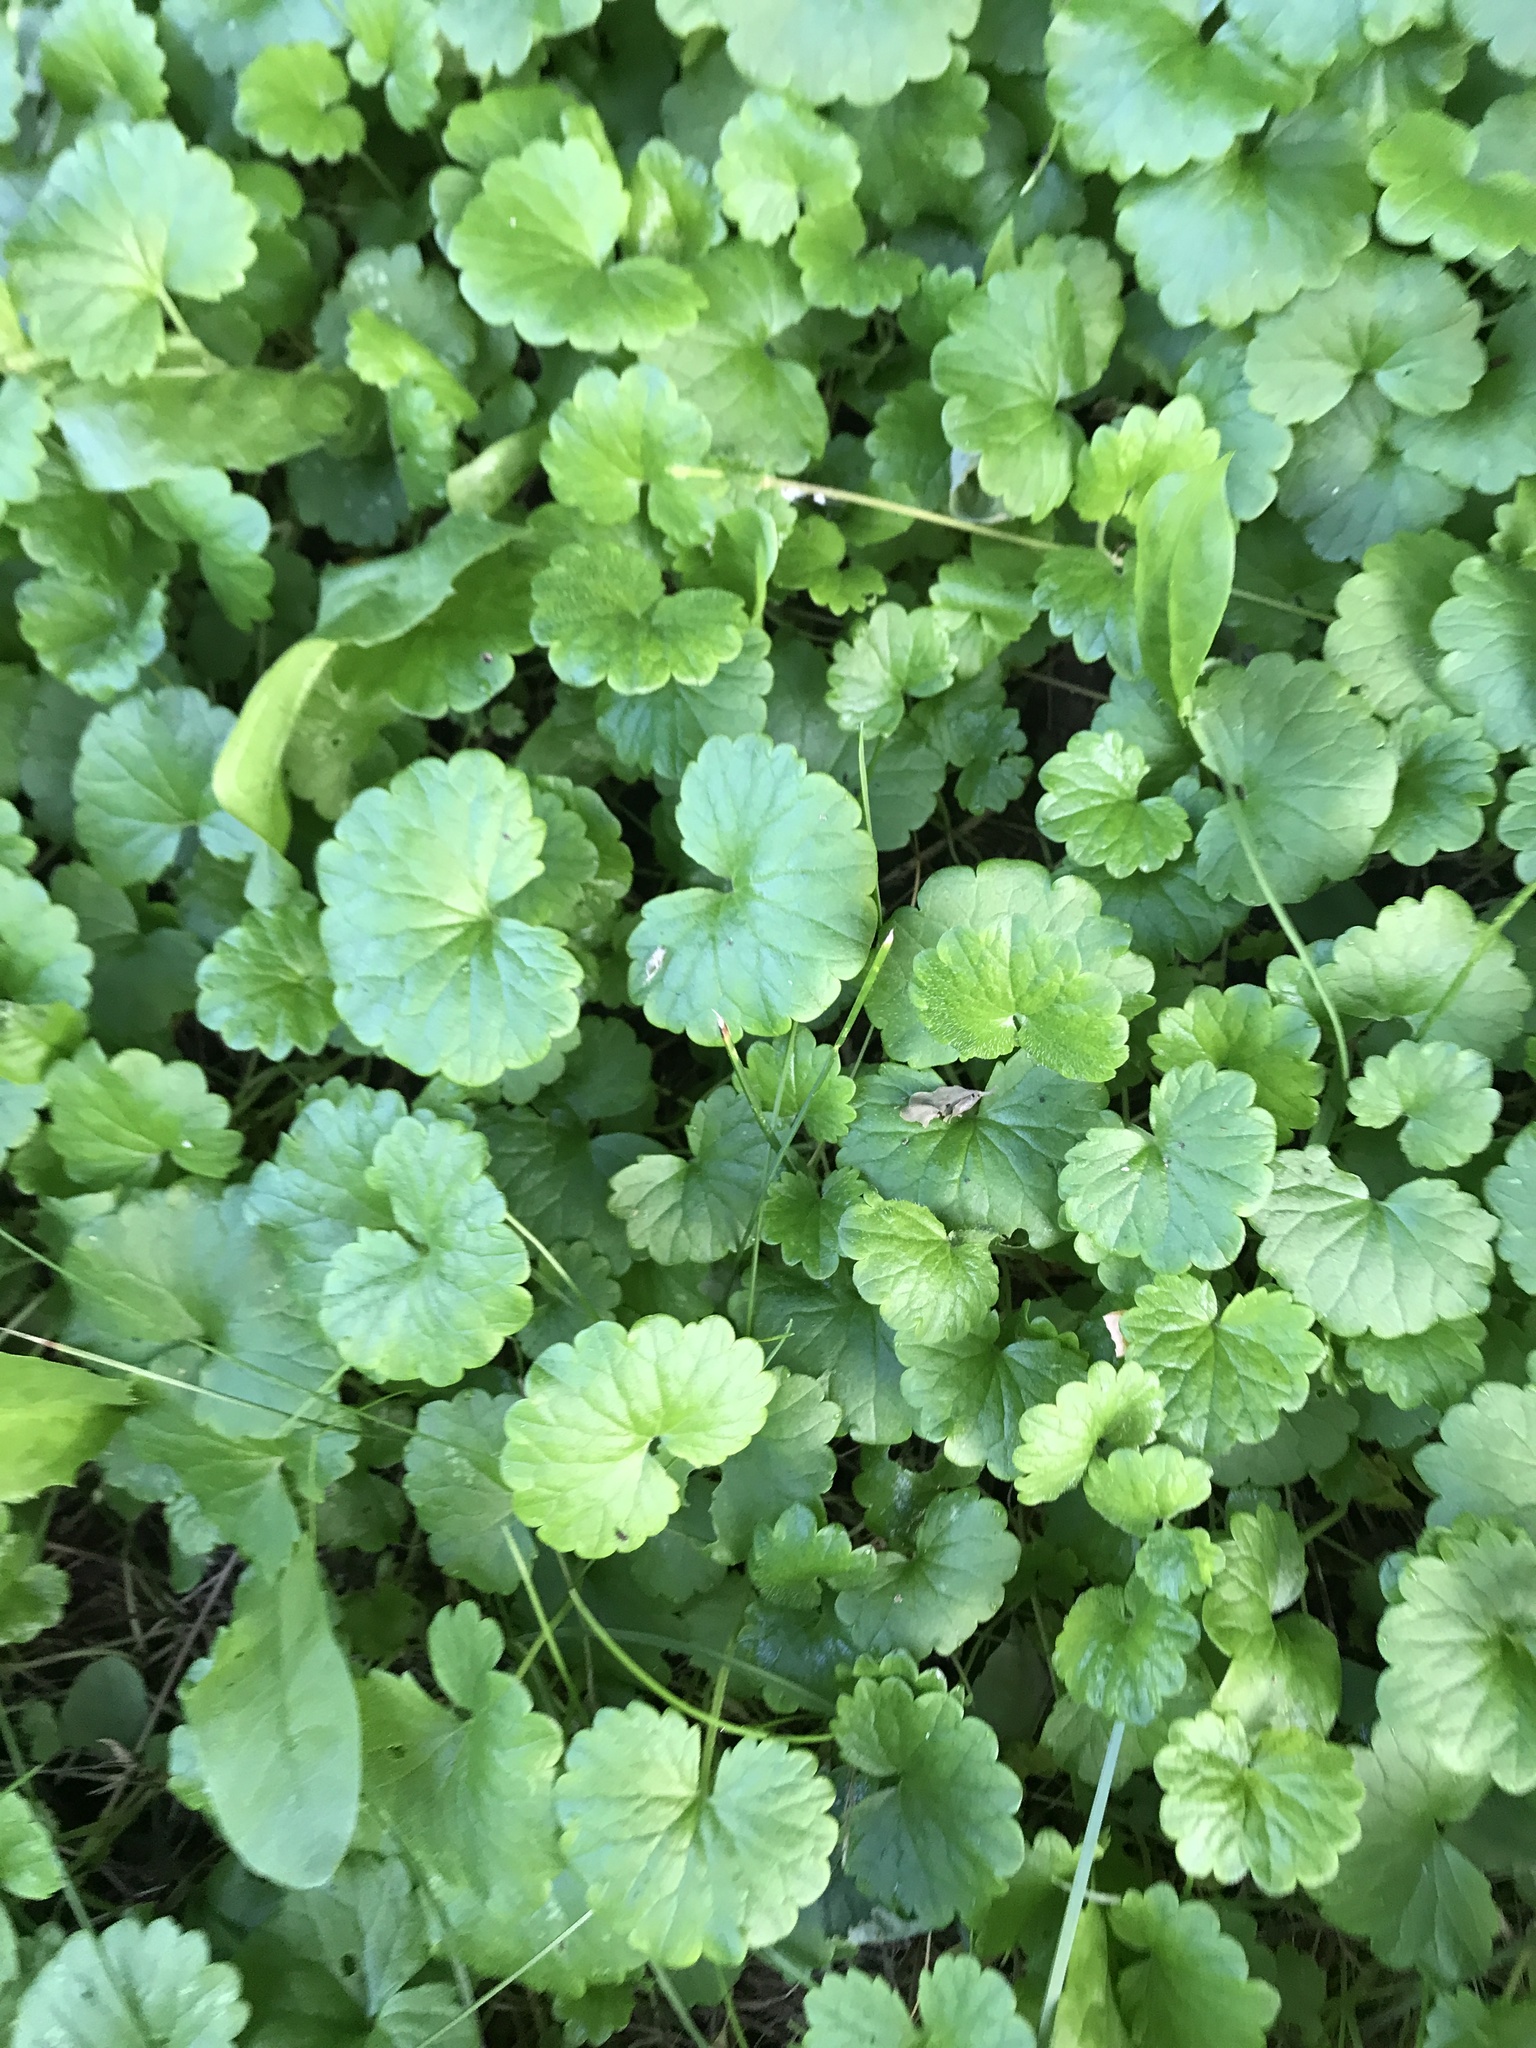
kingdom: Plantae
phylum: Tracheophyta
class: Magnoliopsida
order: Lamiales
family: Lamiaceae
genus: Glechoma
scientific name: Glechoma hederacea
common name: Ground ivy
